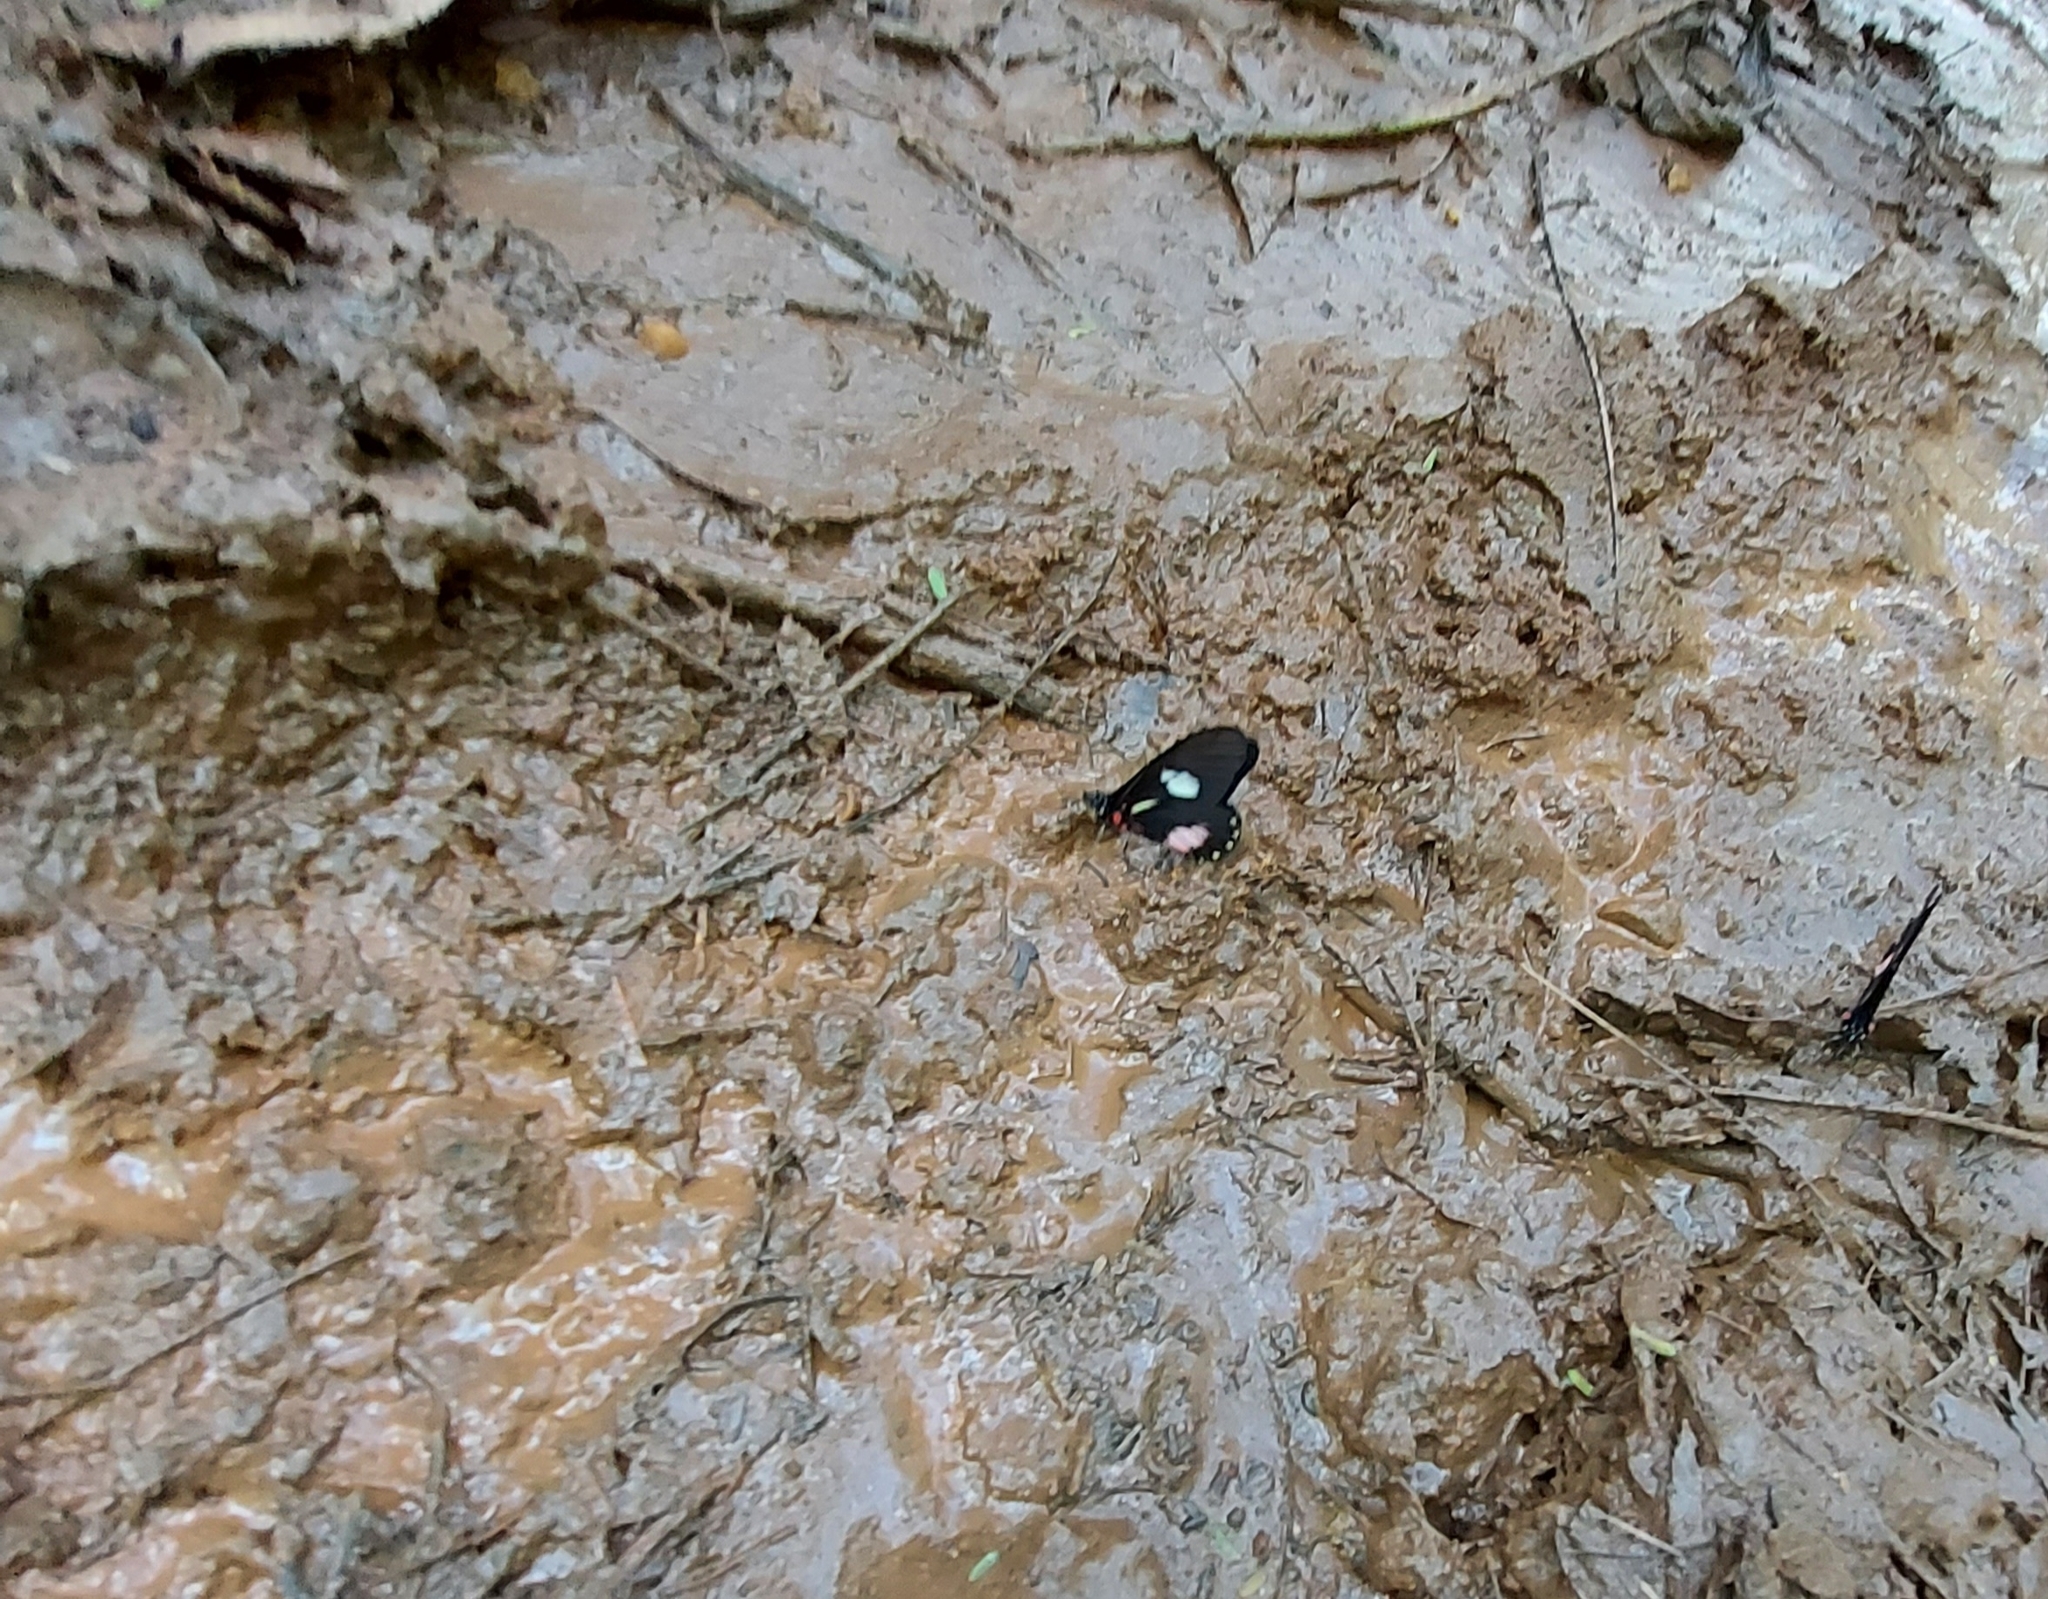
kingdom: Animalia
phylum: Arthropoda
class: Insecta
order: Lepidoptera
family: Pieridae
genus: Archonias
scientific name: Archonias brassolis
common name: Cattleheart white
